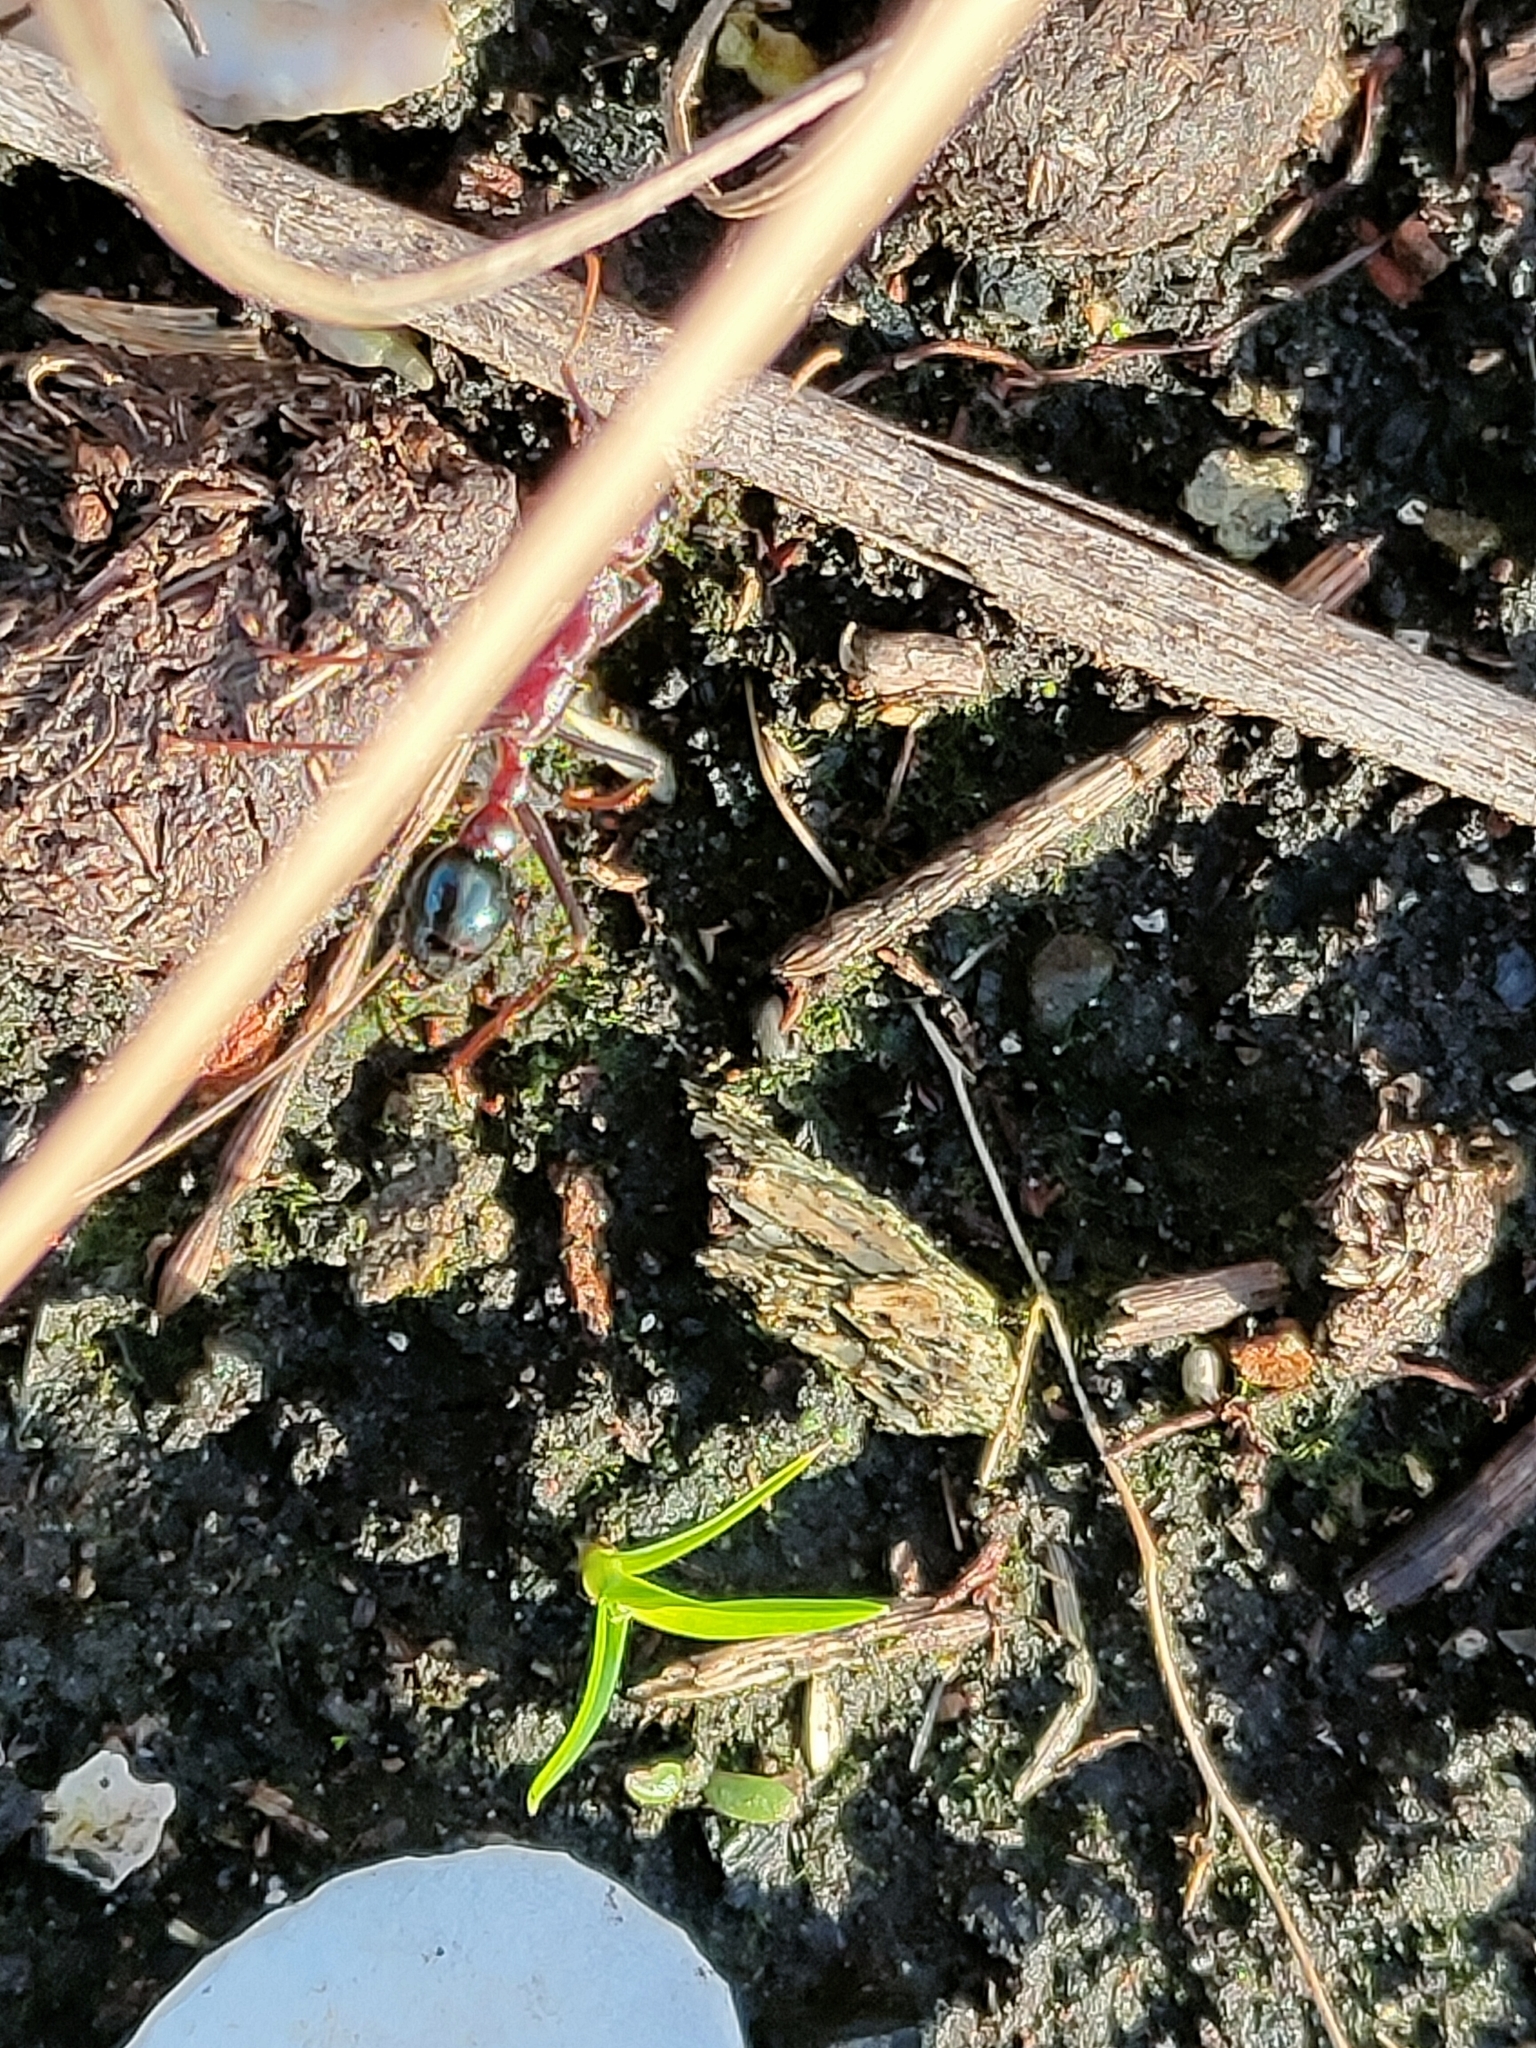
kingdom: Animalia
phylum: Arthropoda
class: Insecta
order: Hymenoptera
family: Formicidae
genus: Myrmecia
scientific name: Myrmecia forficata
